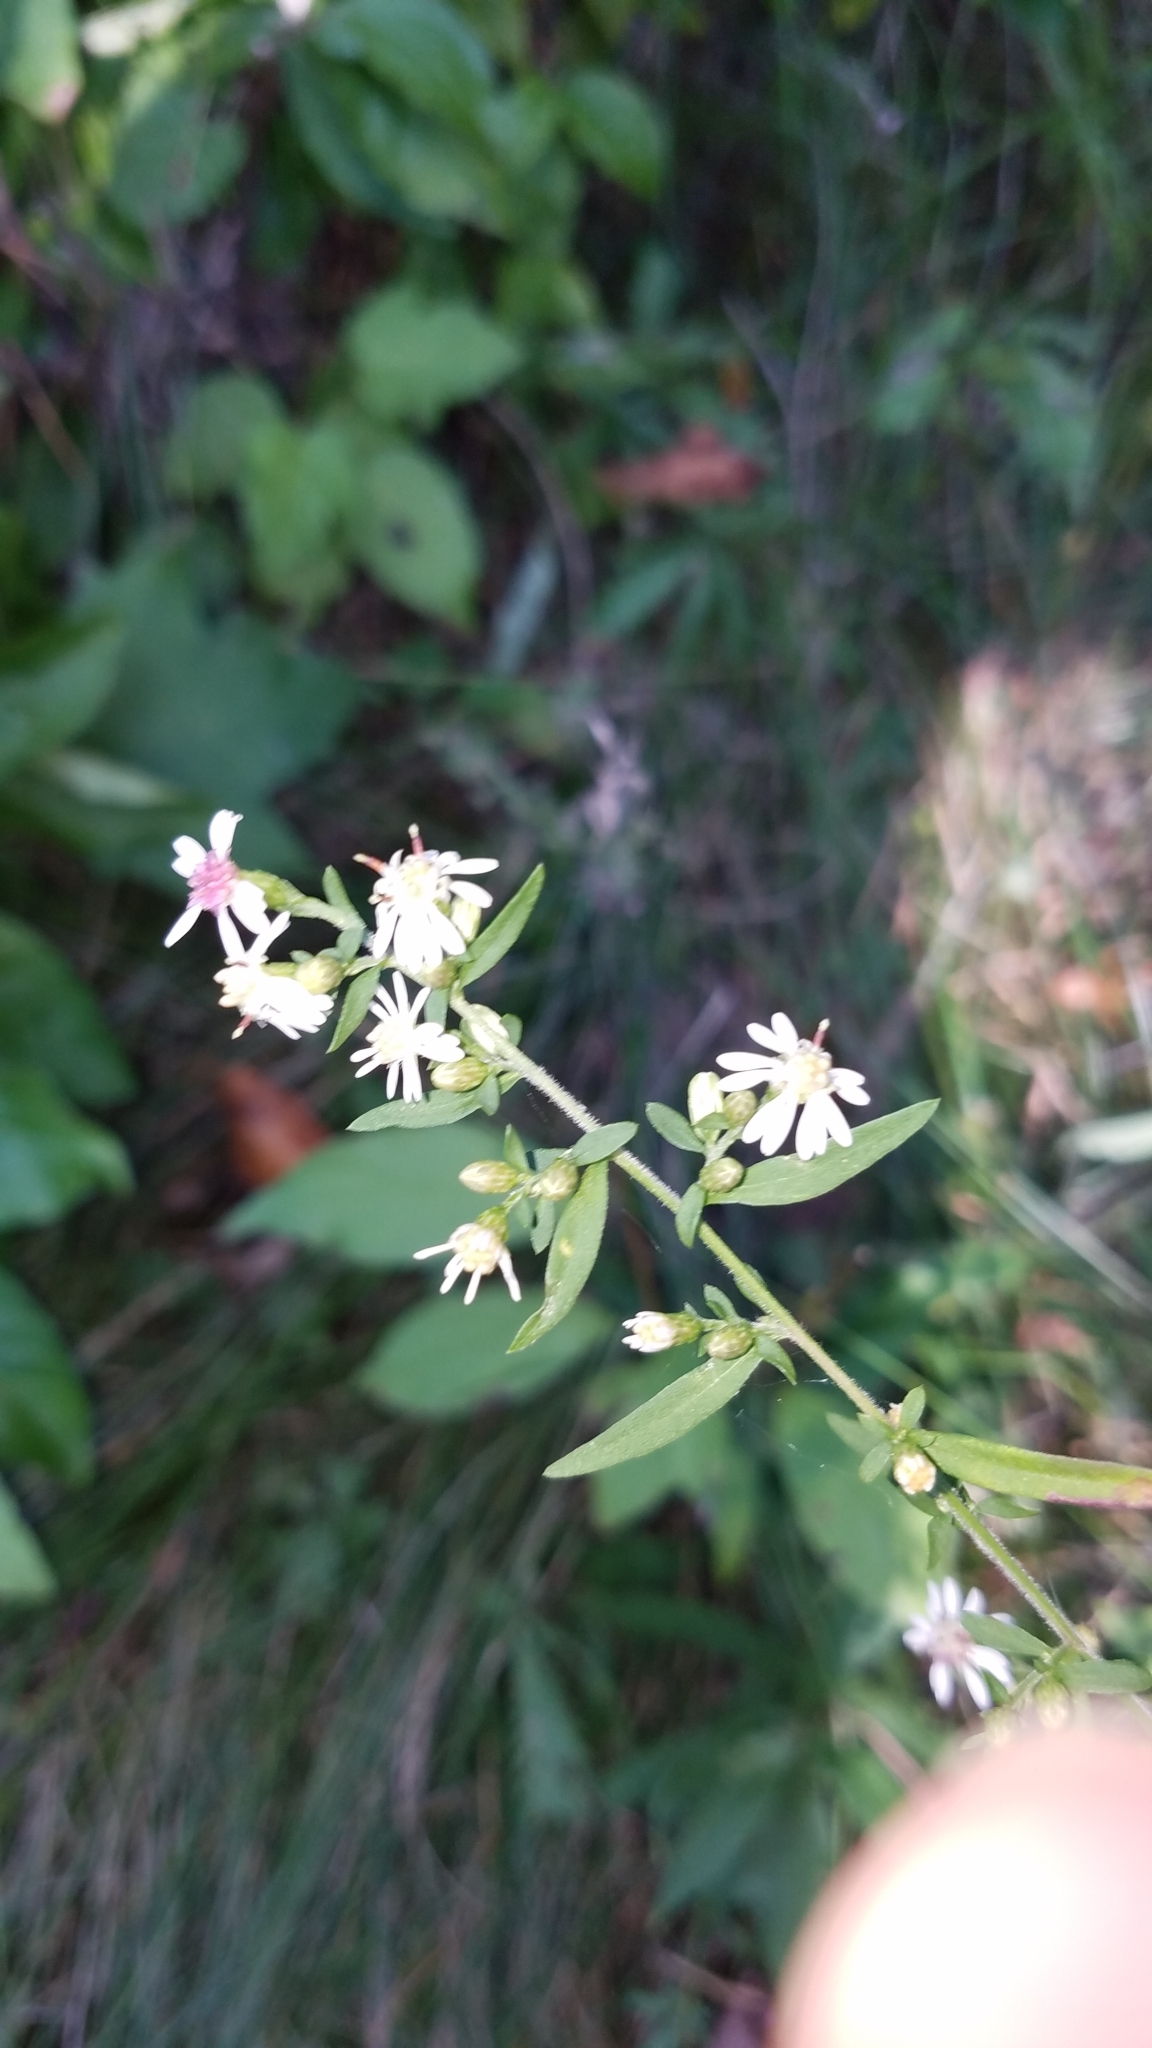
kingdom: Plantae
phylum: Tracheophyta
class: Magnoliopsida
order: Asterales
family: Asteraceae
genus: Symphyotrichum
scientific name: Symphyotrichum lateriflorum
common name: Calico aster
